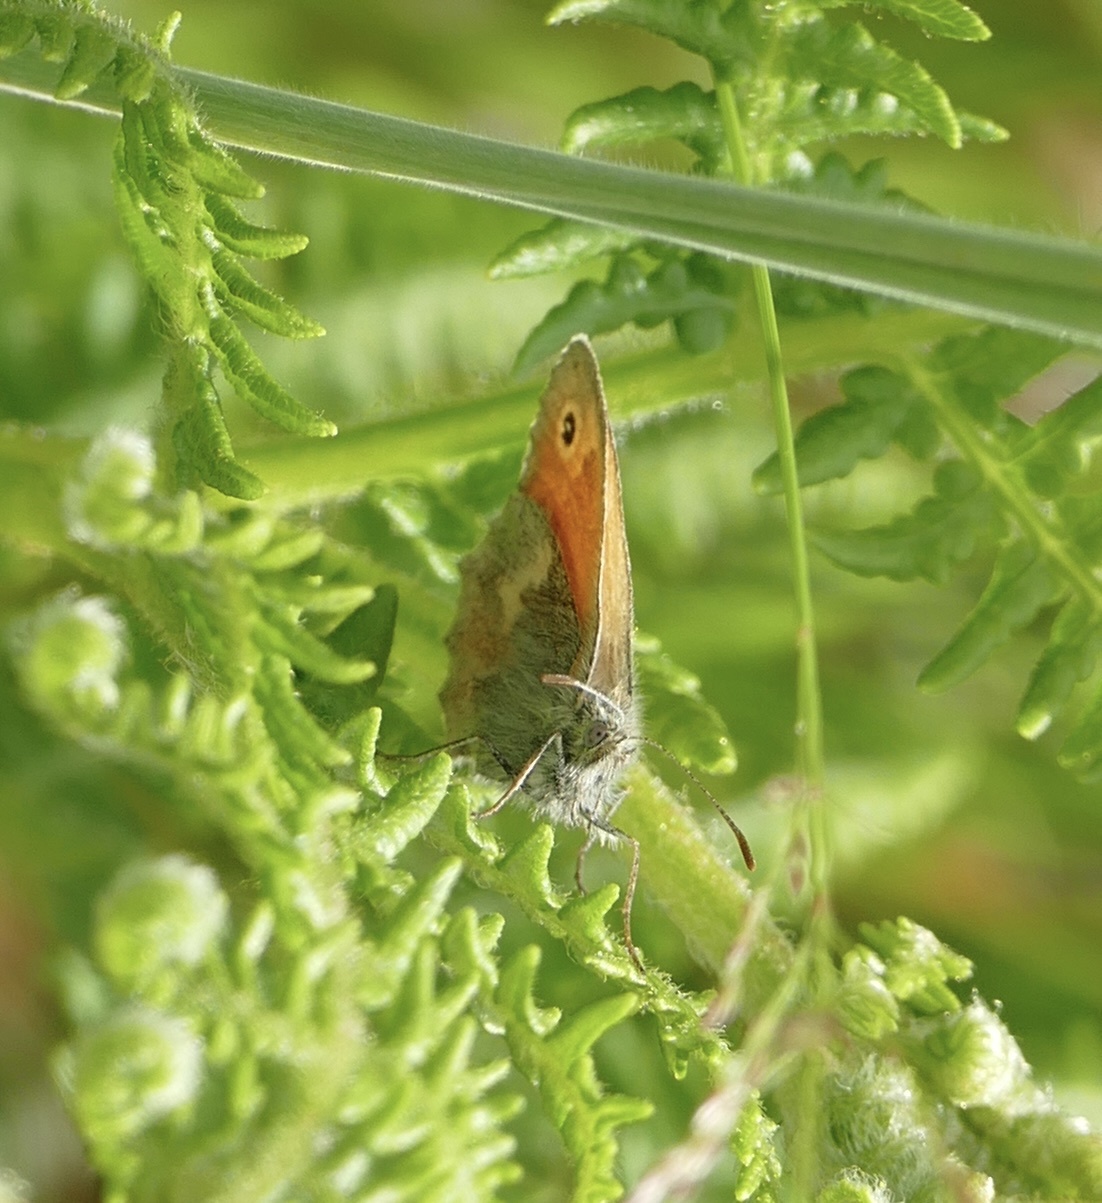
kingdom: Animalia
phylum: Arthropoda
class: Insecta
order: Lepidoptera
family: Nymphalidae
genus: Coenonympha
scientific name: Coenonympha pamphilus
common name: Small heath
